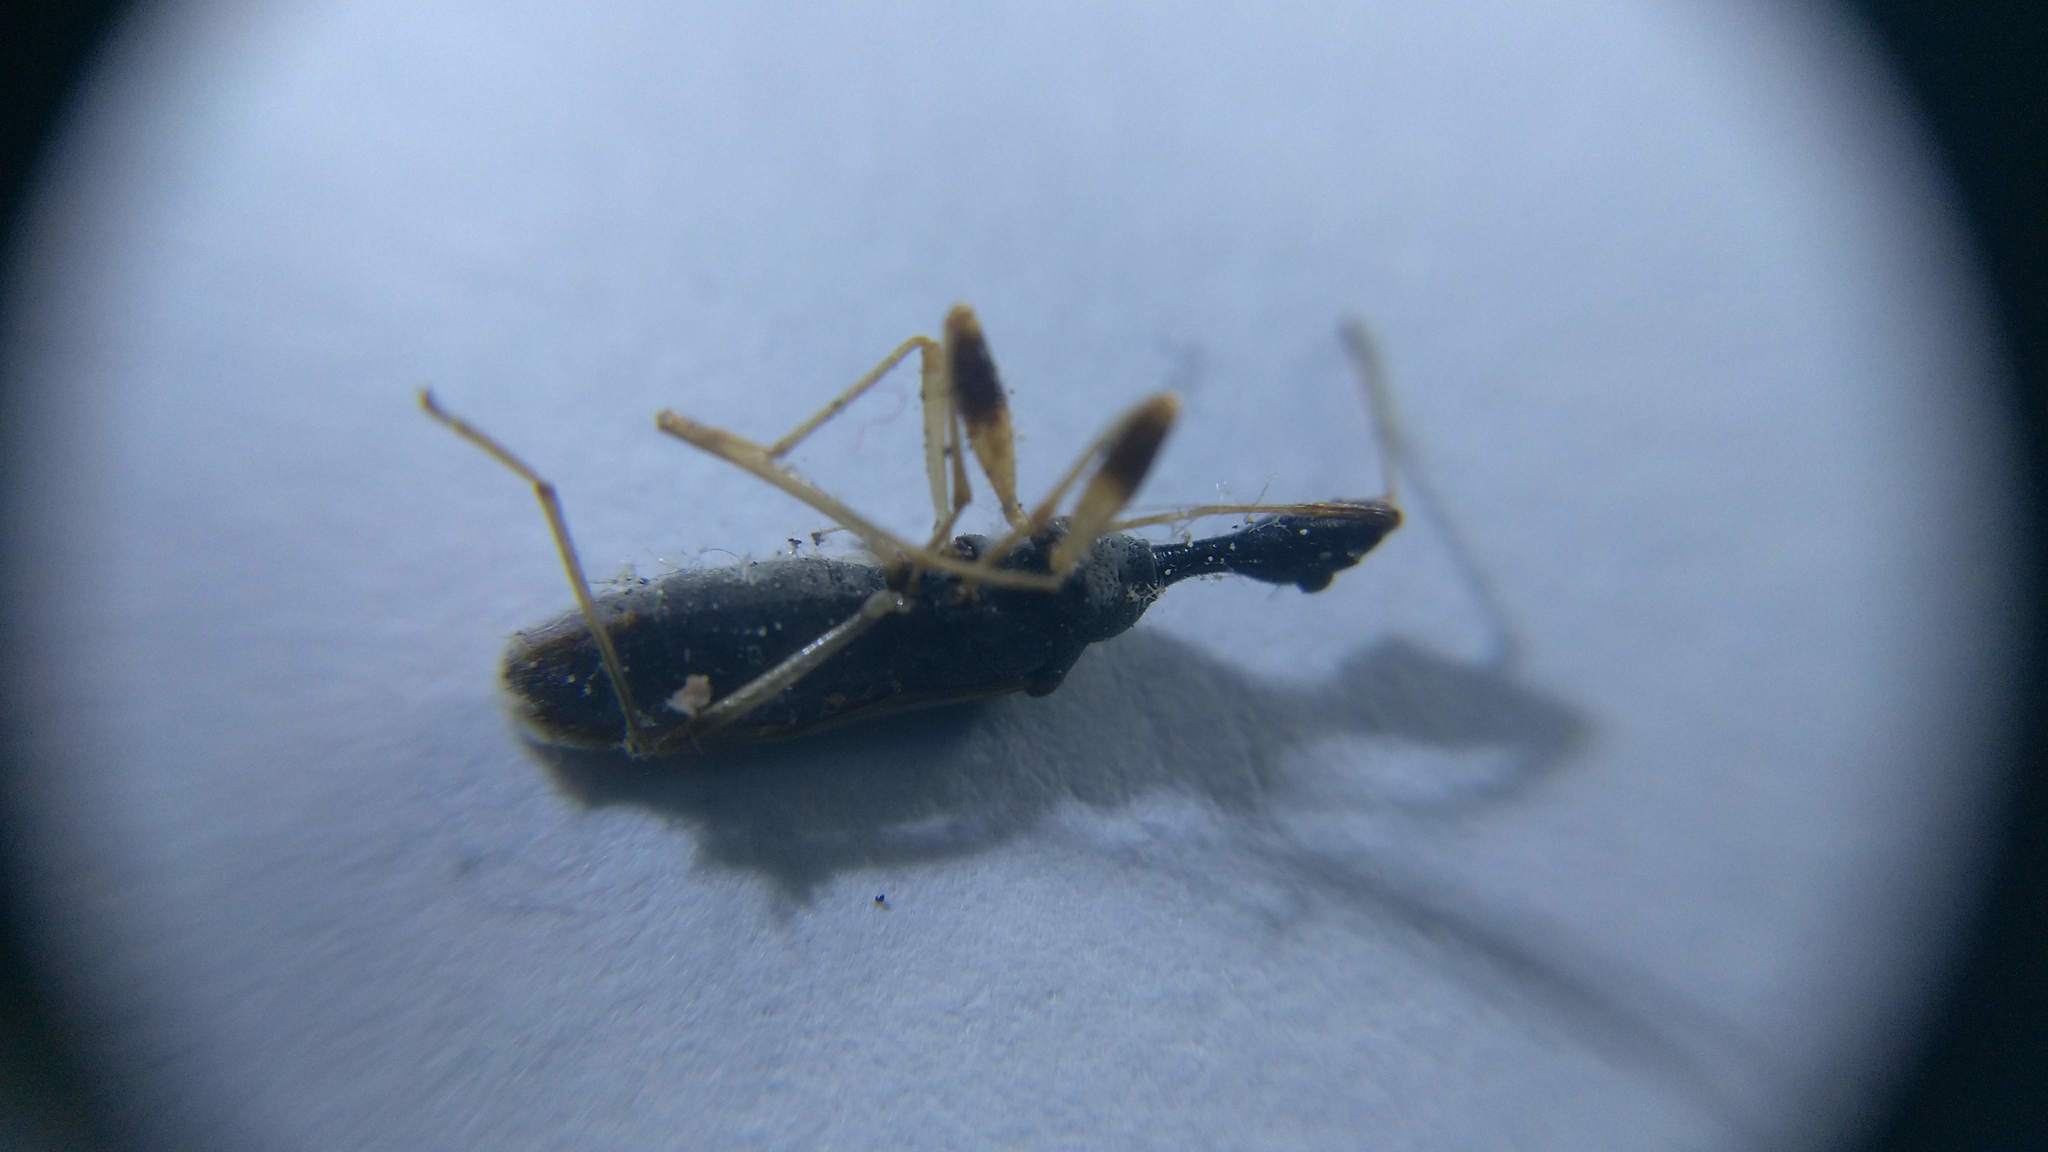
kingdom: Animalia
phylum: Arthropoda
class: Insecta
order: Hemiptera
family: Rhyparochromidae
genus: Myodocha
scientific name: Myodocha serripes
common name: Long-necked seed bug
